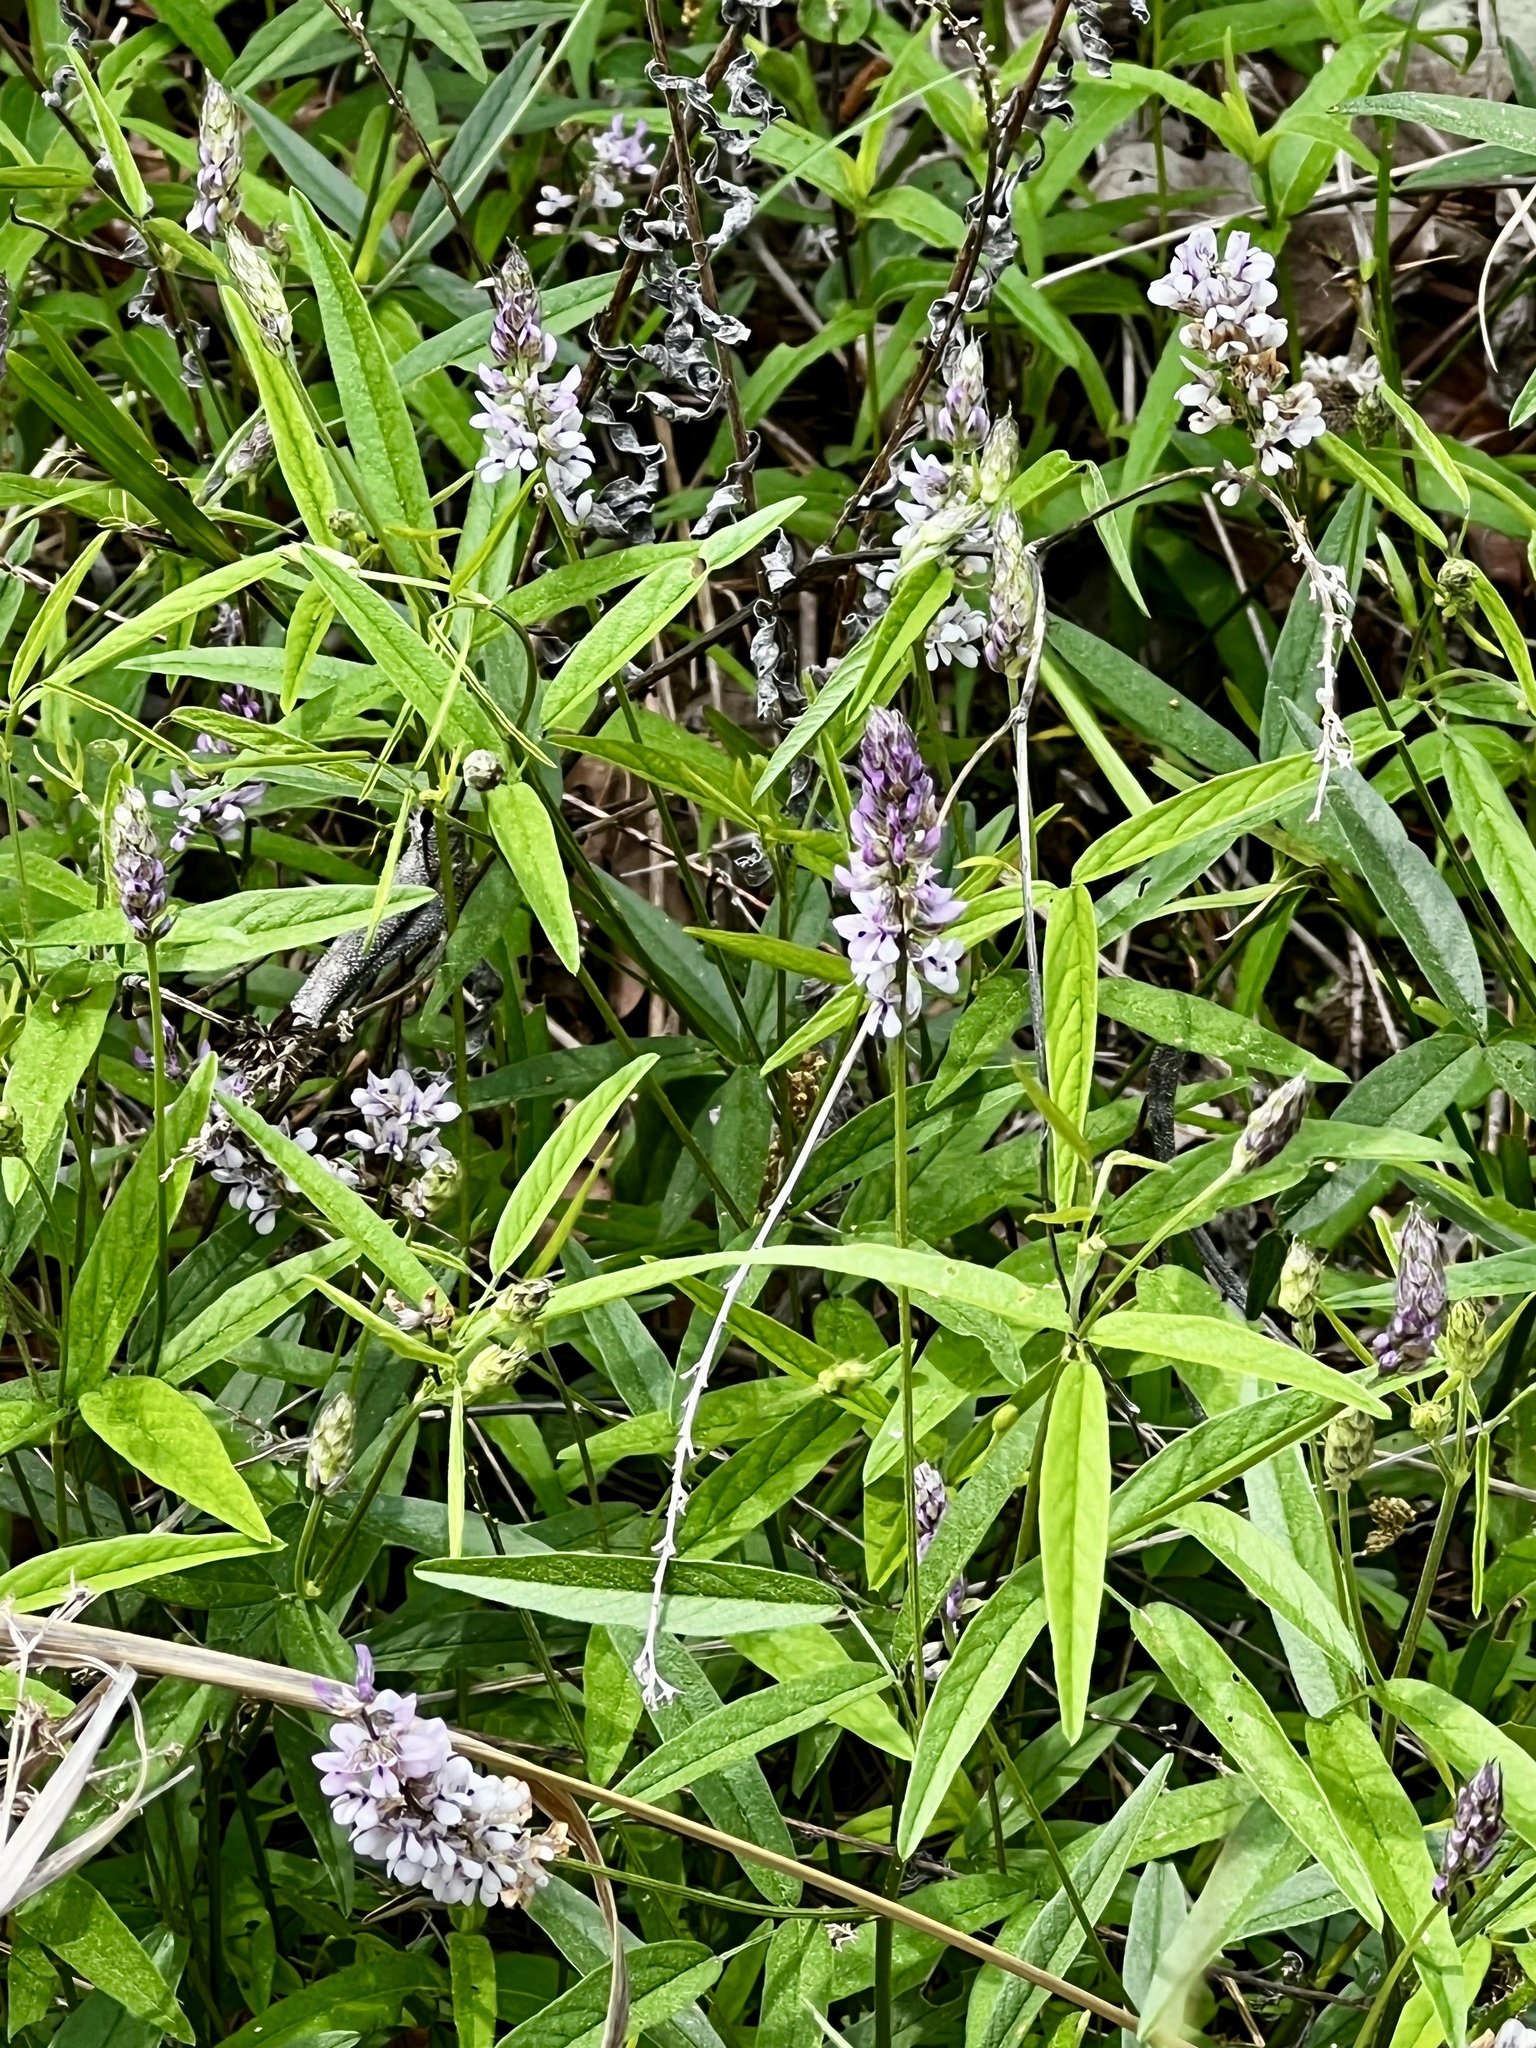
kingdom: Plantae
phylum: Tracheophyta
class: Magnoliopsida
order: Fabales
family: Fabaceae
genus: Orbexilum
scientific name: Orbexilum pedunculatum
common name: Sampson's snakeroot
